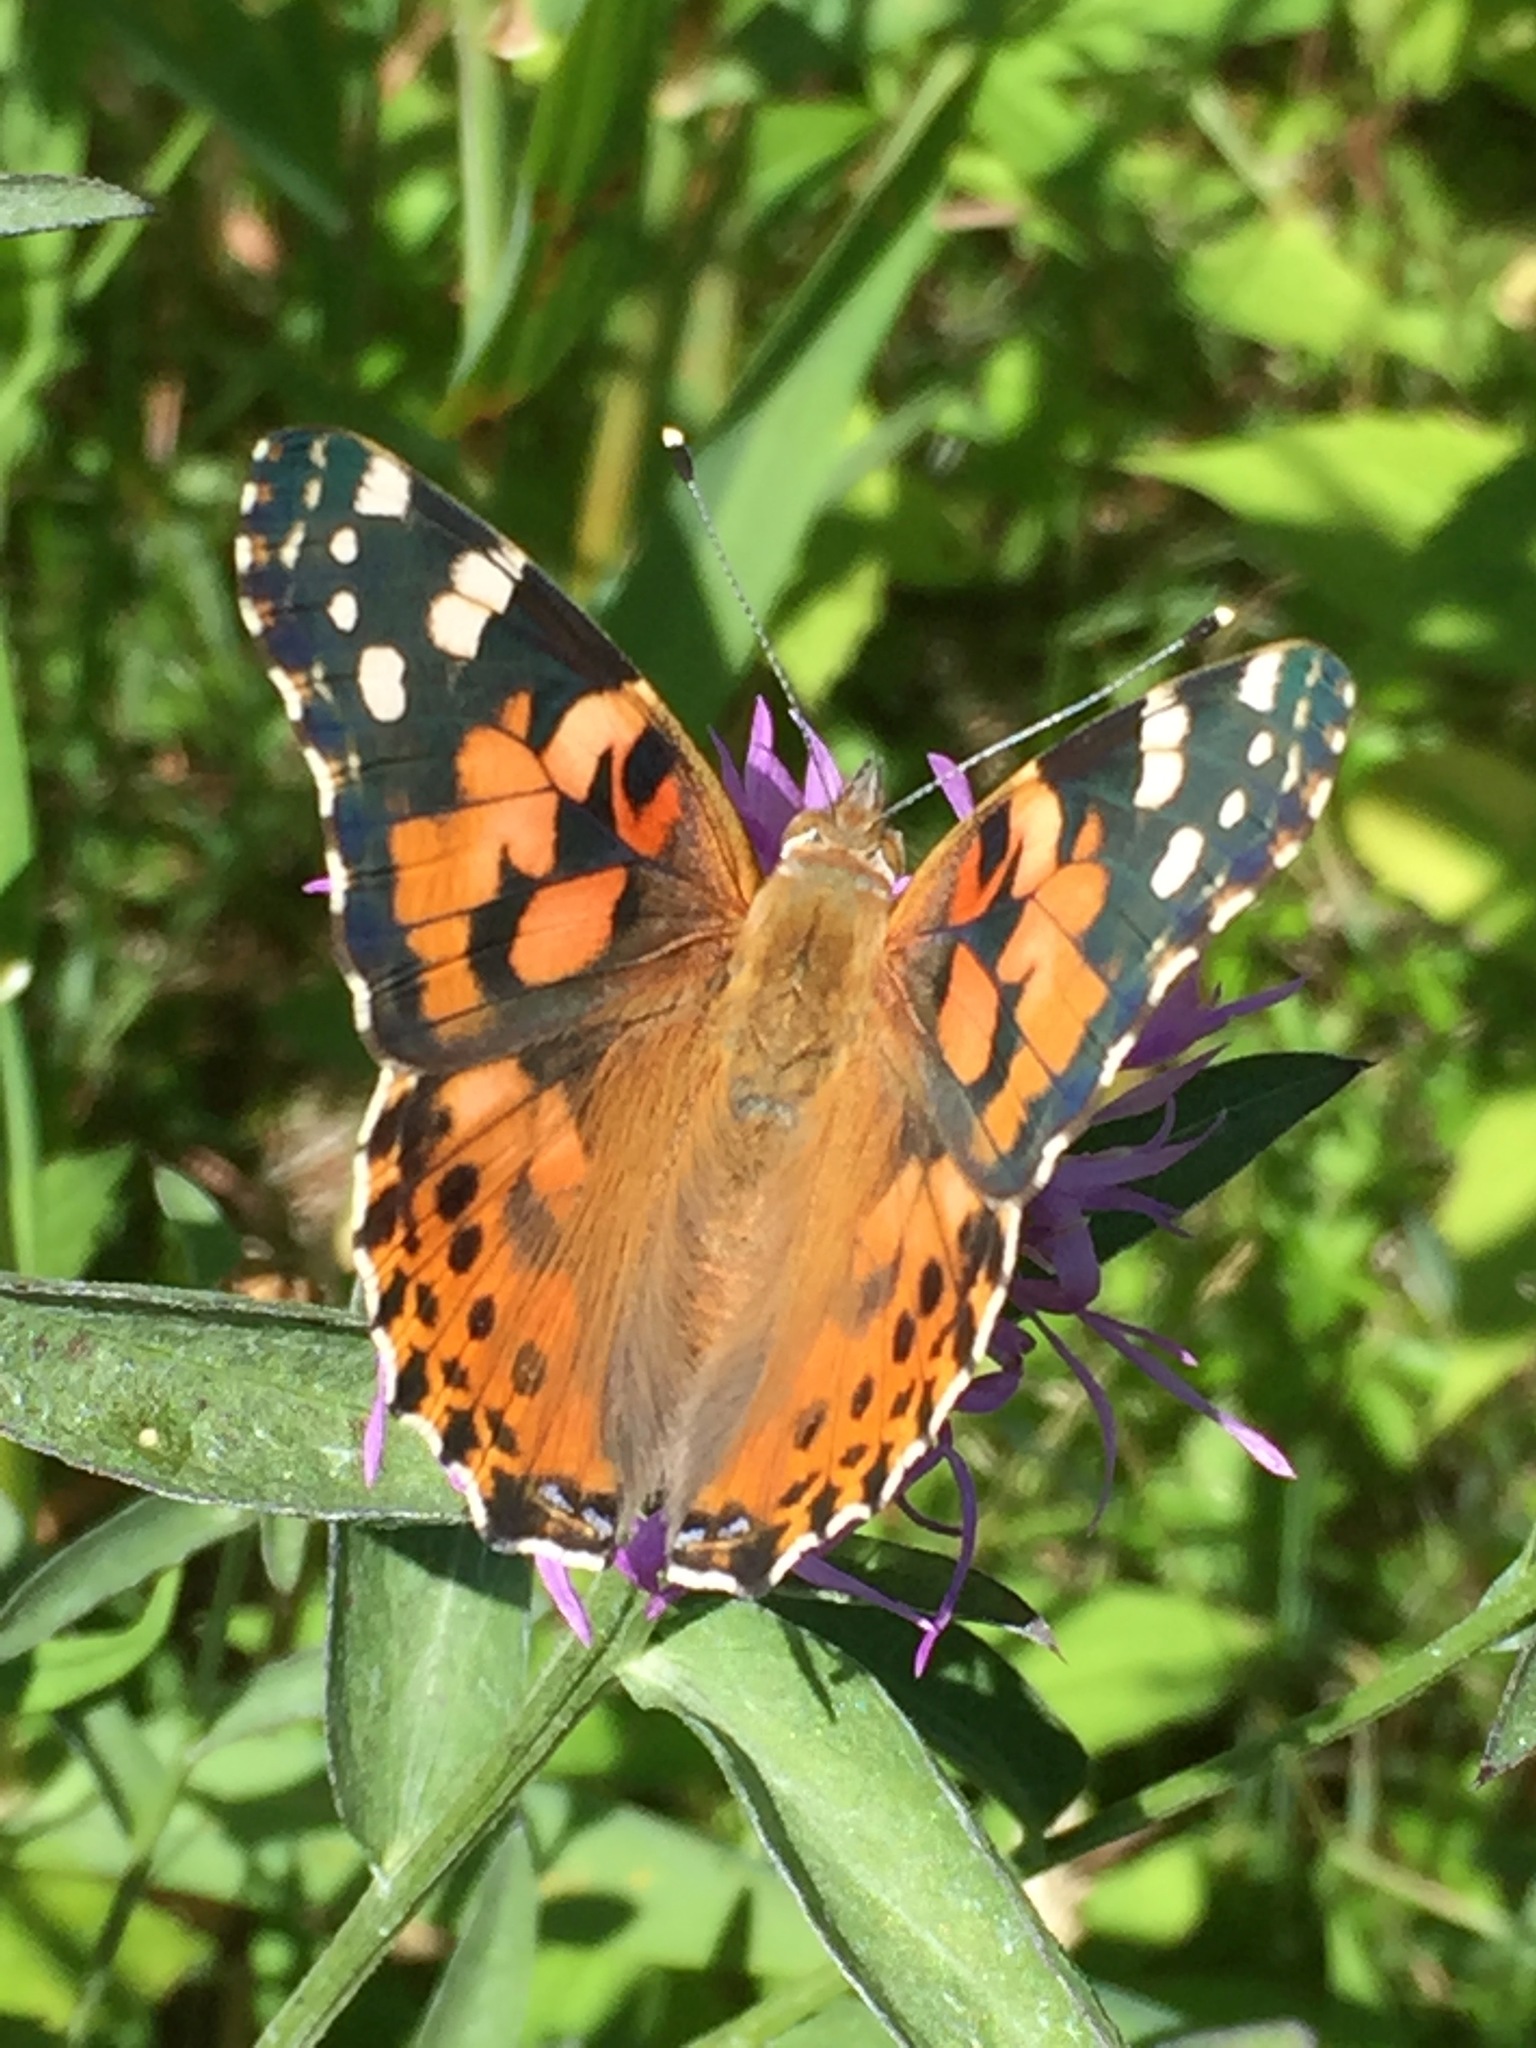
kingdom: Animalia
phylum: Arthropoda
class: Insecta
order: Lepidoptera
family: Nymphalidae
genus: Vanessa
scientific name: Vanessa cardui
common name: Painted lady
